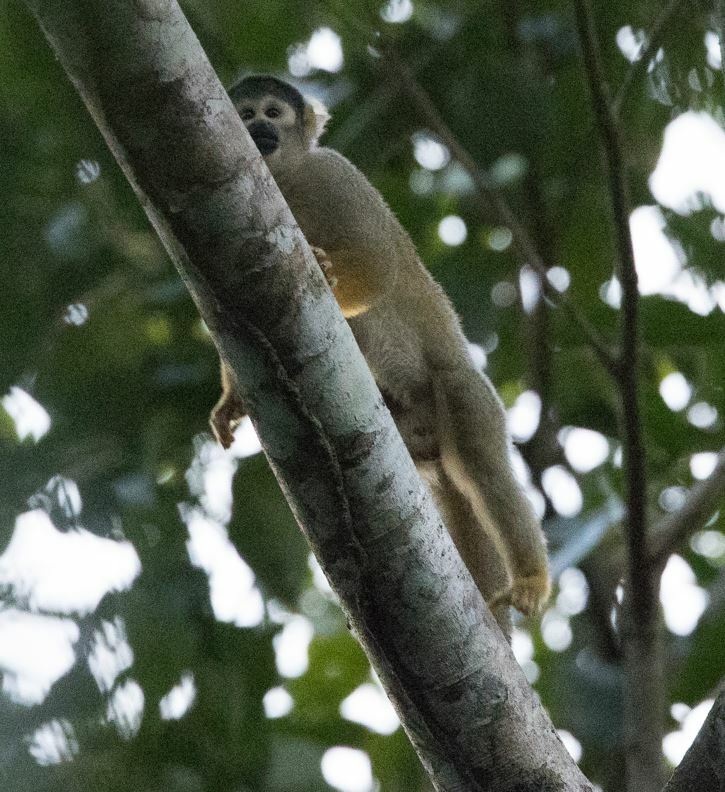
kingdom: Animalia
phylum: Chordata
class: Mammalia
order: Primates
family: Cebidae
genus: Saimiri
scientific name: Saimiri boliviensis
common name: Black-capped squirrel monkey
